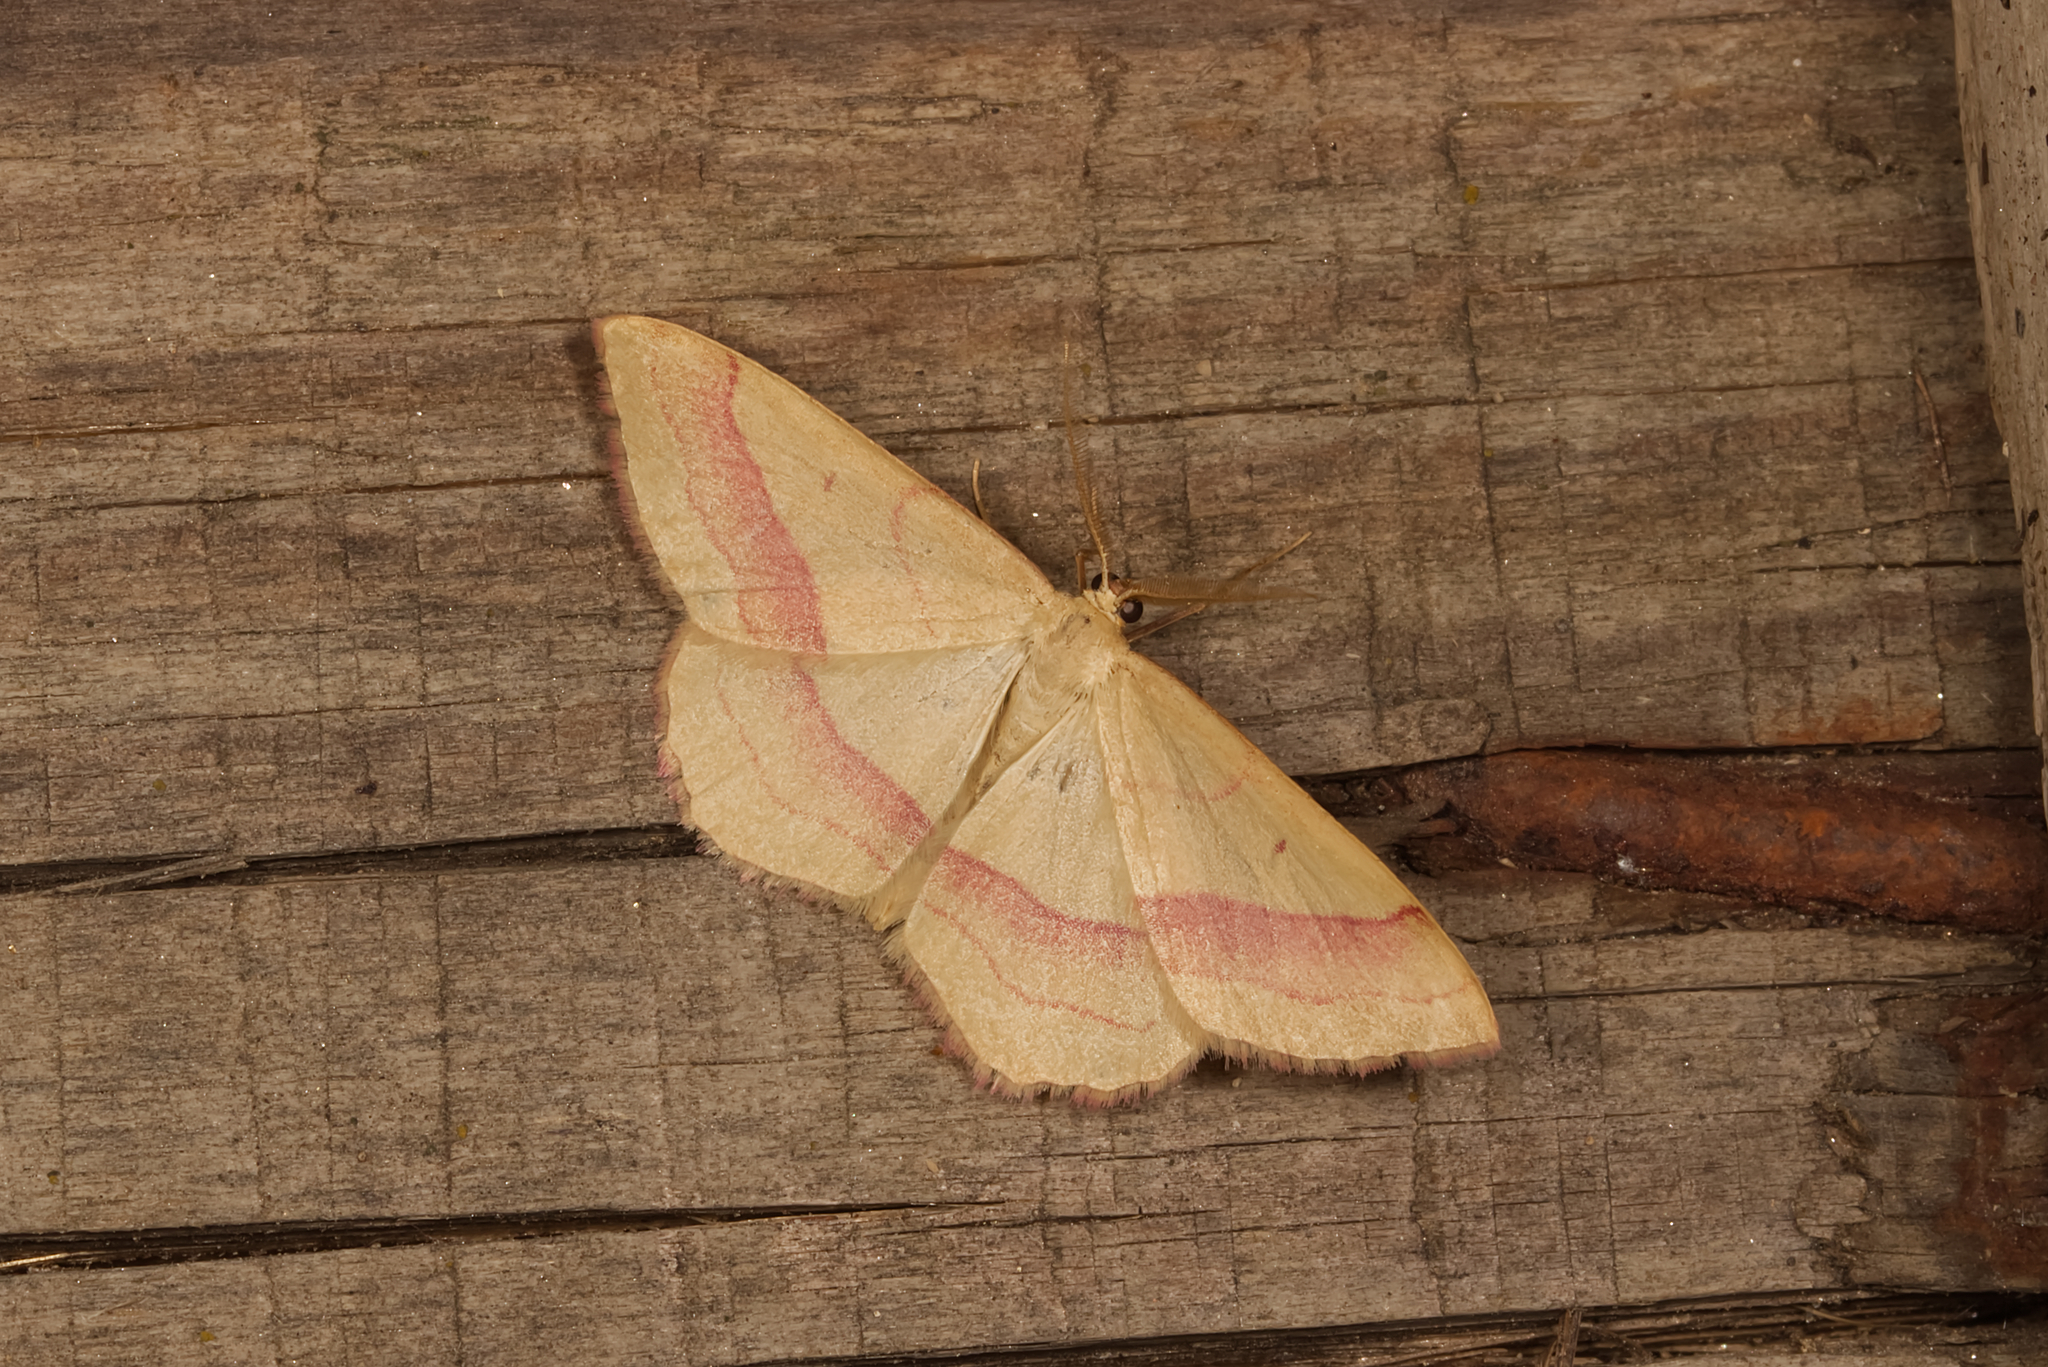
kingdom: Animalia
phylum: Arthropoda
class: Insecta
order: Lepidoptera
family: Geometridae
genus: Rhodostrophia
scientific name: Rhodostrophia vibicaria
